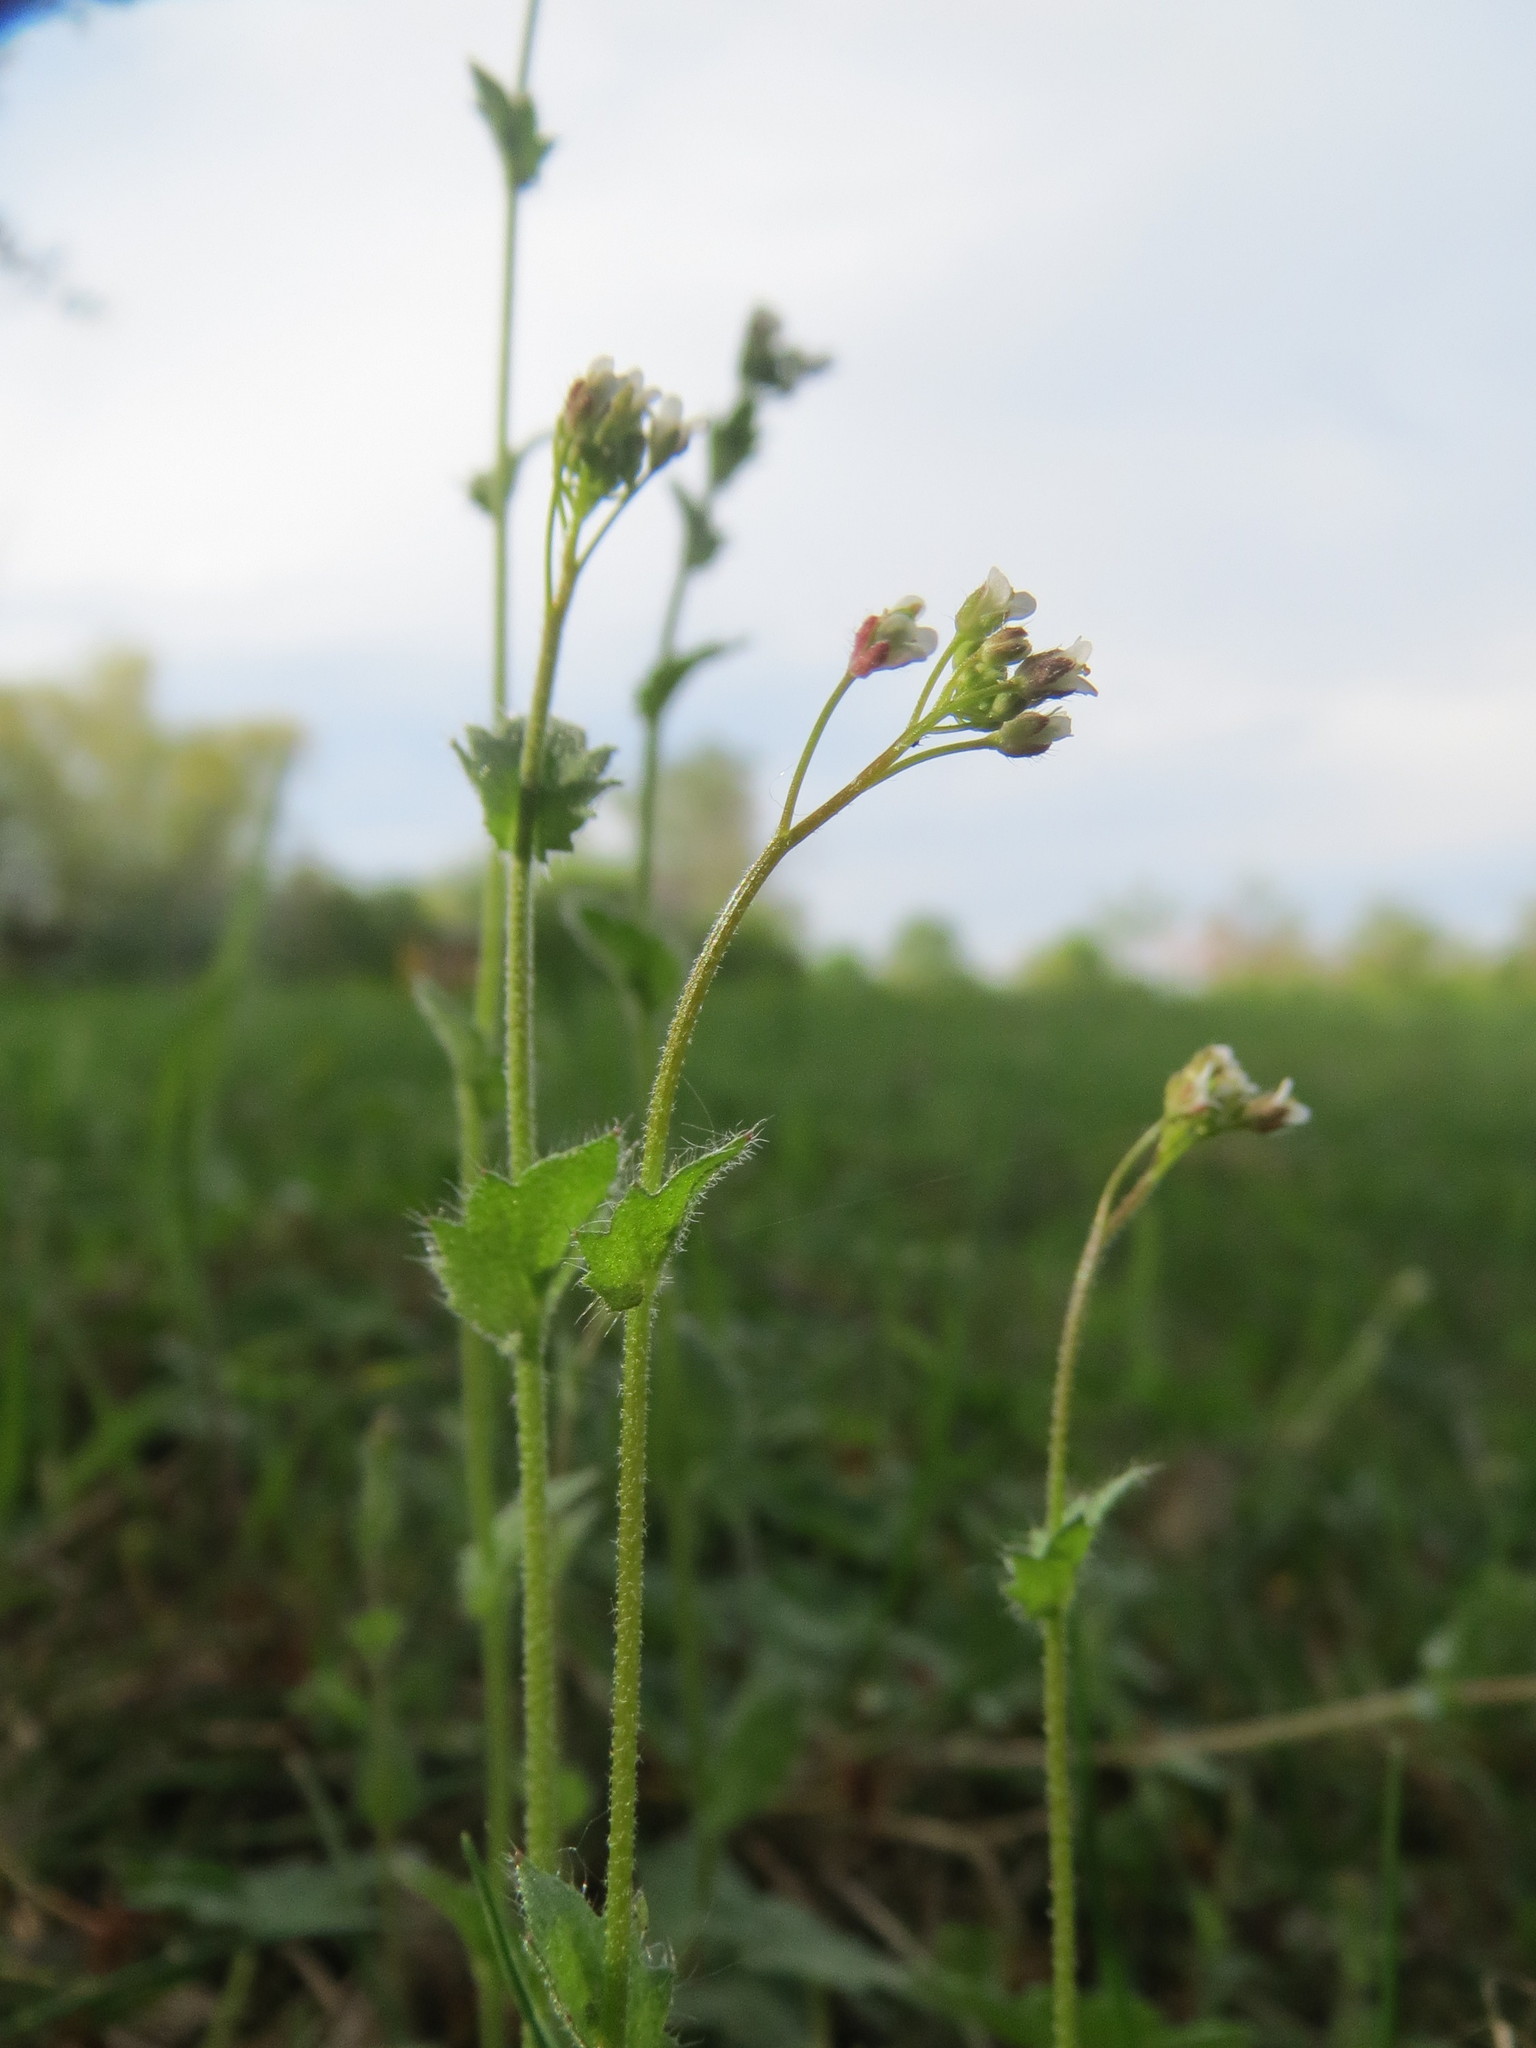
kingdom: Plantae
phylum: Tracheophyta
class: Magnoliopsida
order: Brassicales
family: Brassicaceae
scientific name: Brassicaceae
